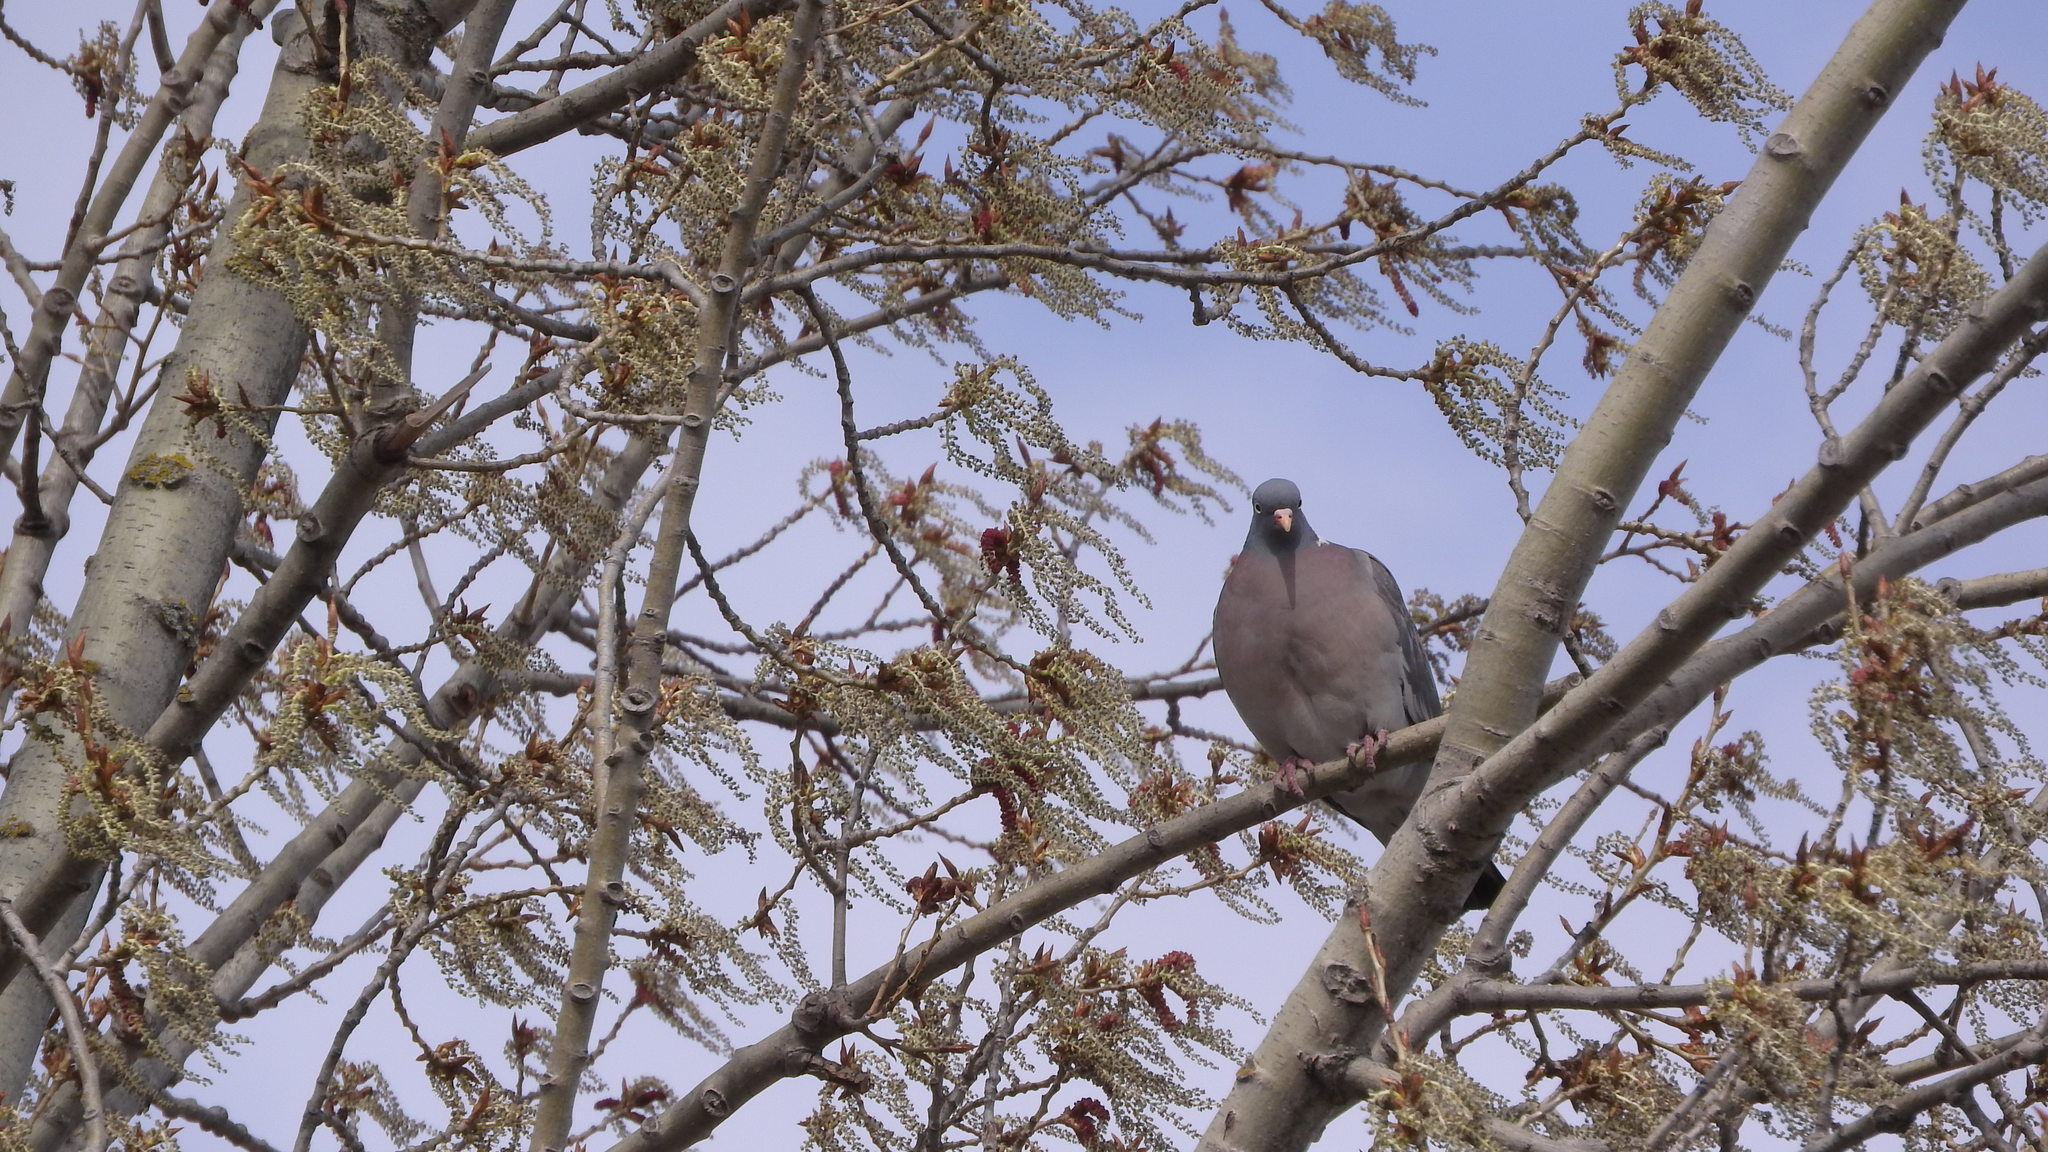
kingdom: Animalia
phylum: Chordata
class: Aves
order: Columbiformes
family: Columbidae
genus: Columba
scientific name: Columba palumbus
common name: Common wood pigeon
